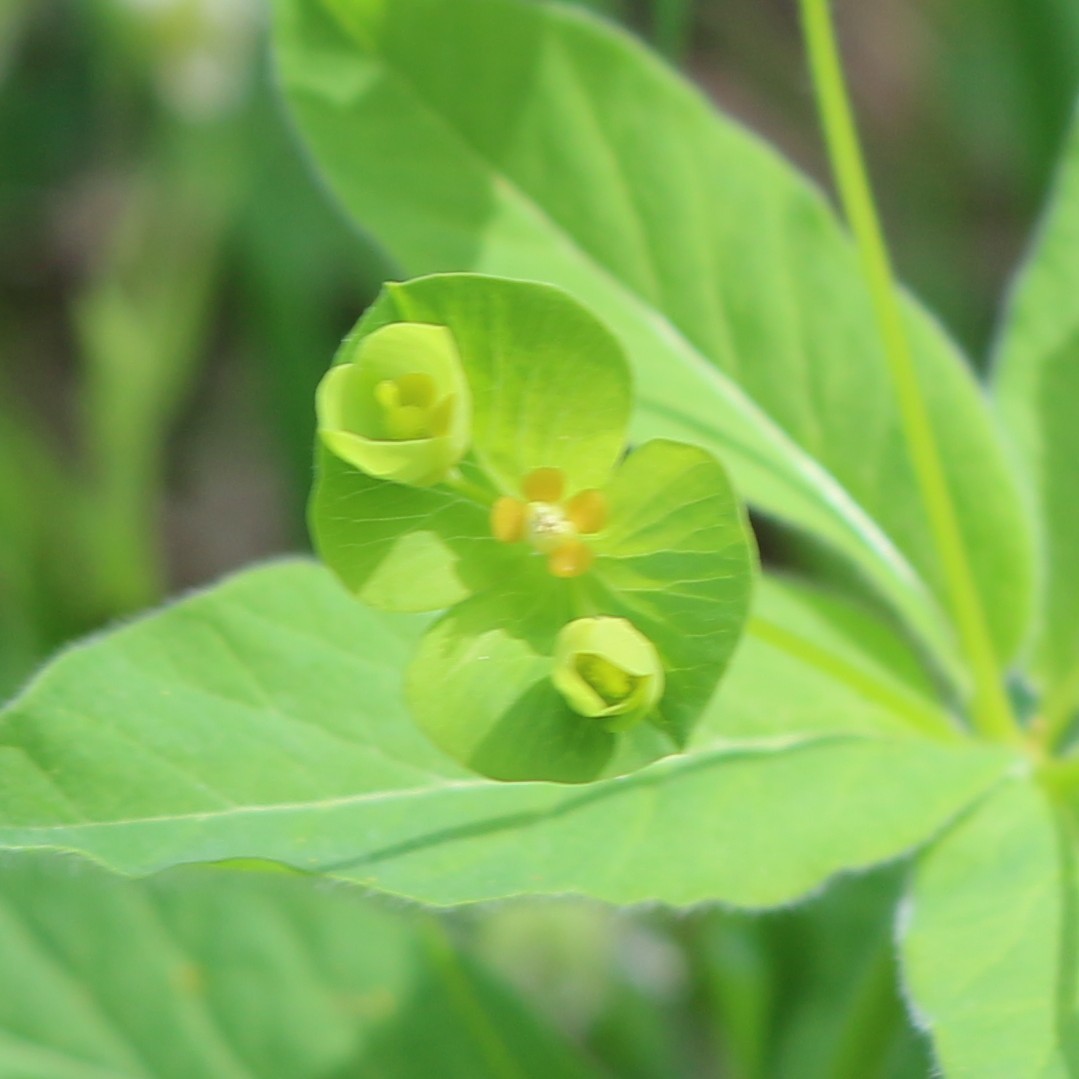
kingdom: Plantae
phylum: Tracheophyta
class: Magnoliopsida
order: Malpighiales
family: Euphorbiaceae
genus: Euphorbia
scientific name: Euphorbia squamosa
